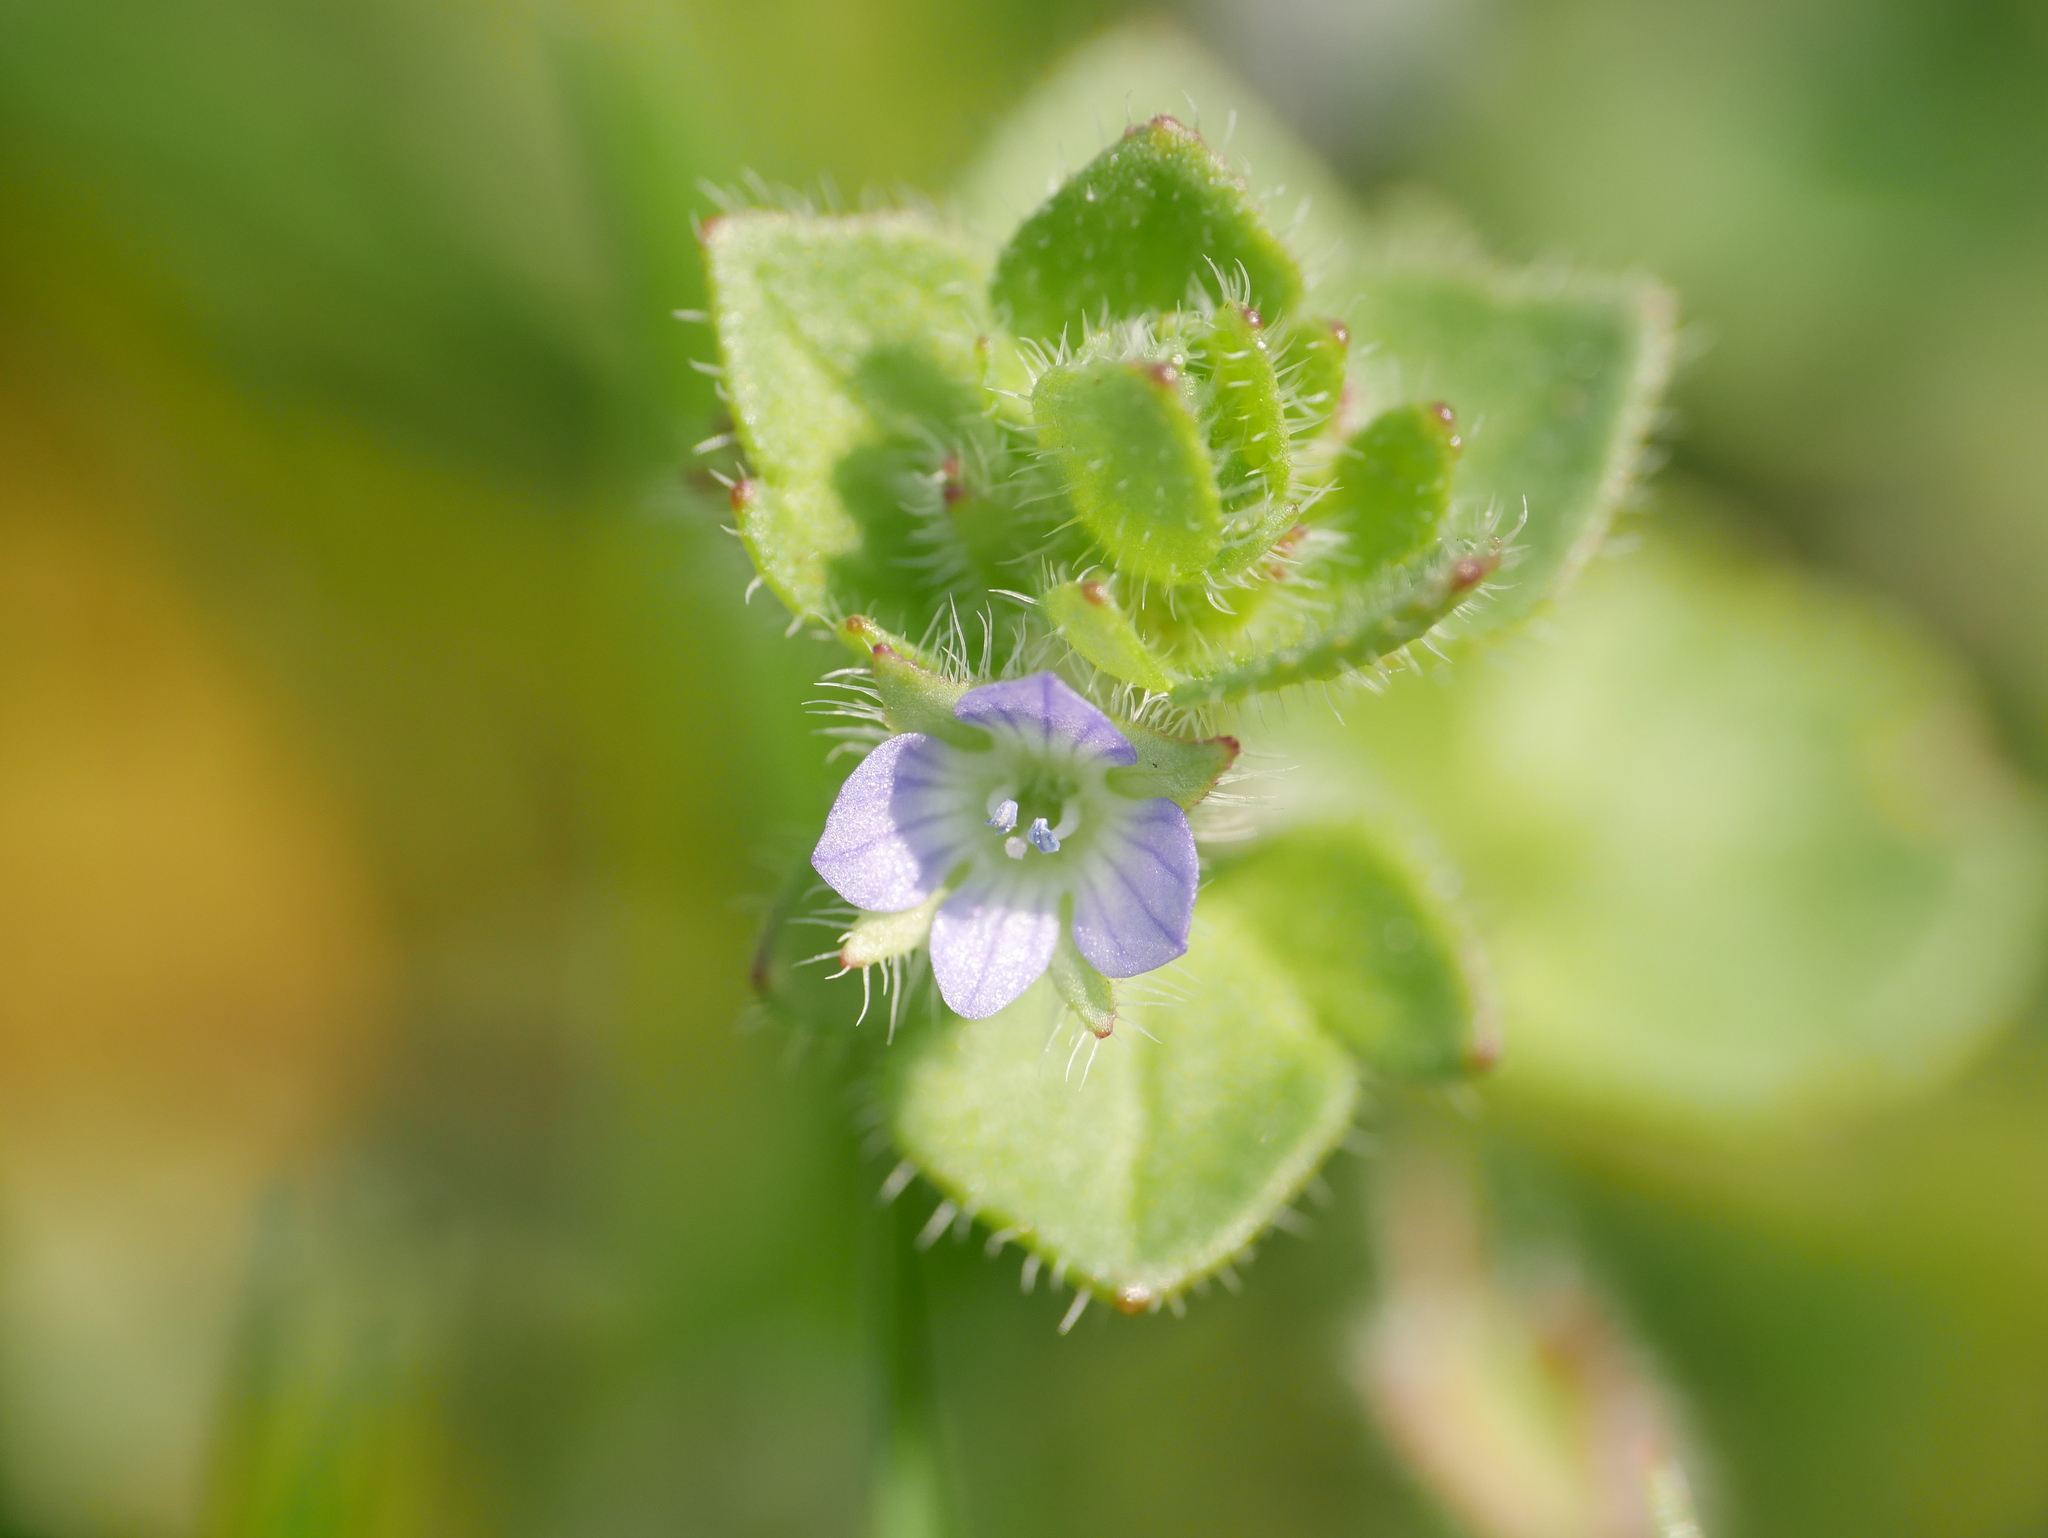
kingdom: Plantae
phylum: Tracheophyta
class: Magnoliopsida
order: Lamiales
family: Plantaginaceae
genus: Veronica
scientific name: Veronica hederifolia
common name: Ivy-leaved speedwell
